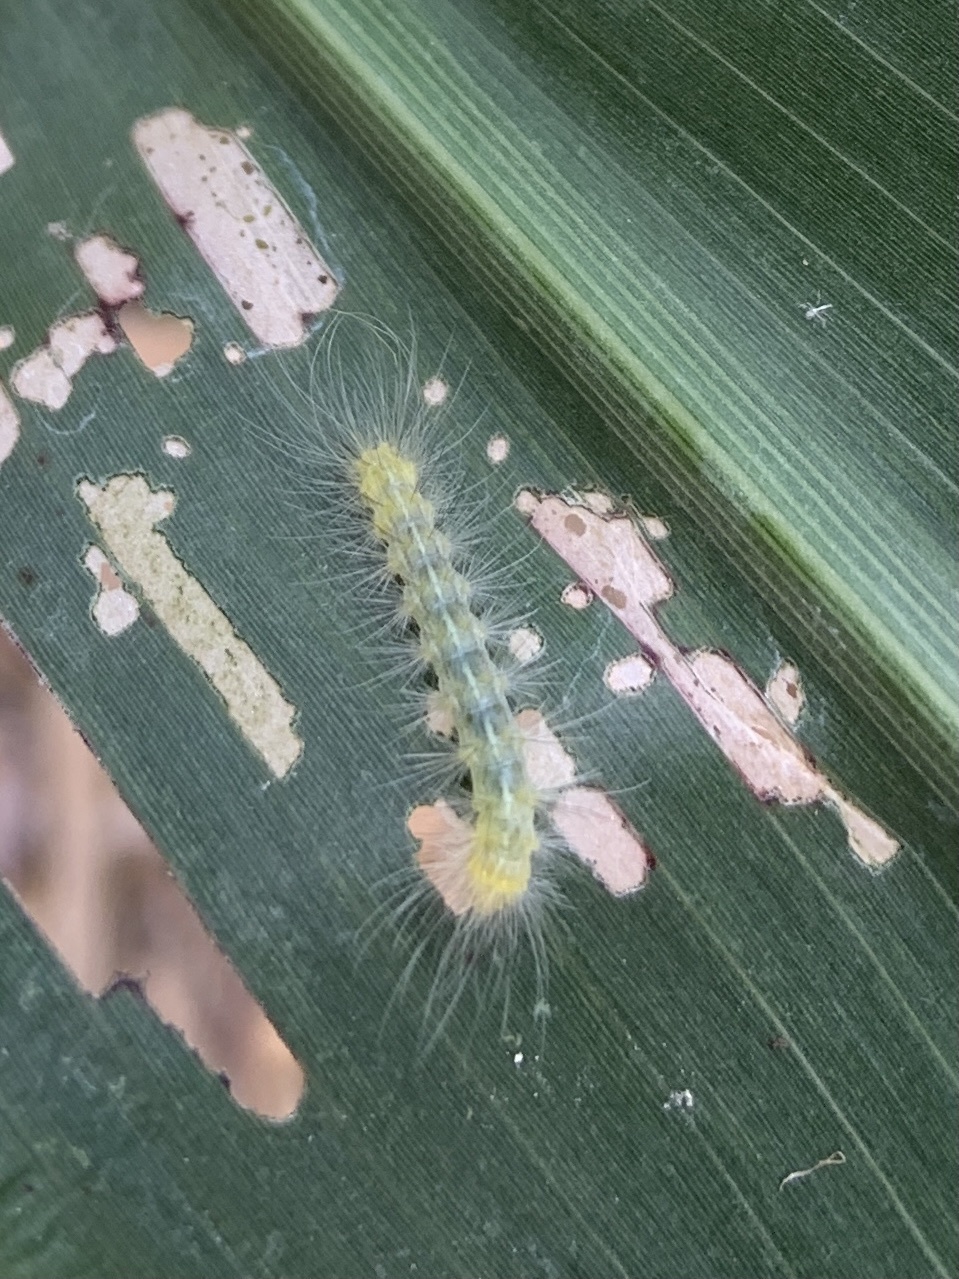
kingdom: Animalia
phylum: Arthropoda
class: Insecta
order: Lepidoptera
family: Erebidae
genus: Spilosoma
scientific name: Spilosoma virginica
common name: Virginia tiger moth
